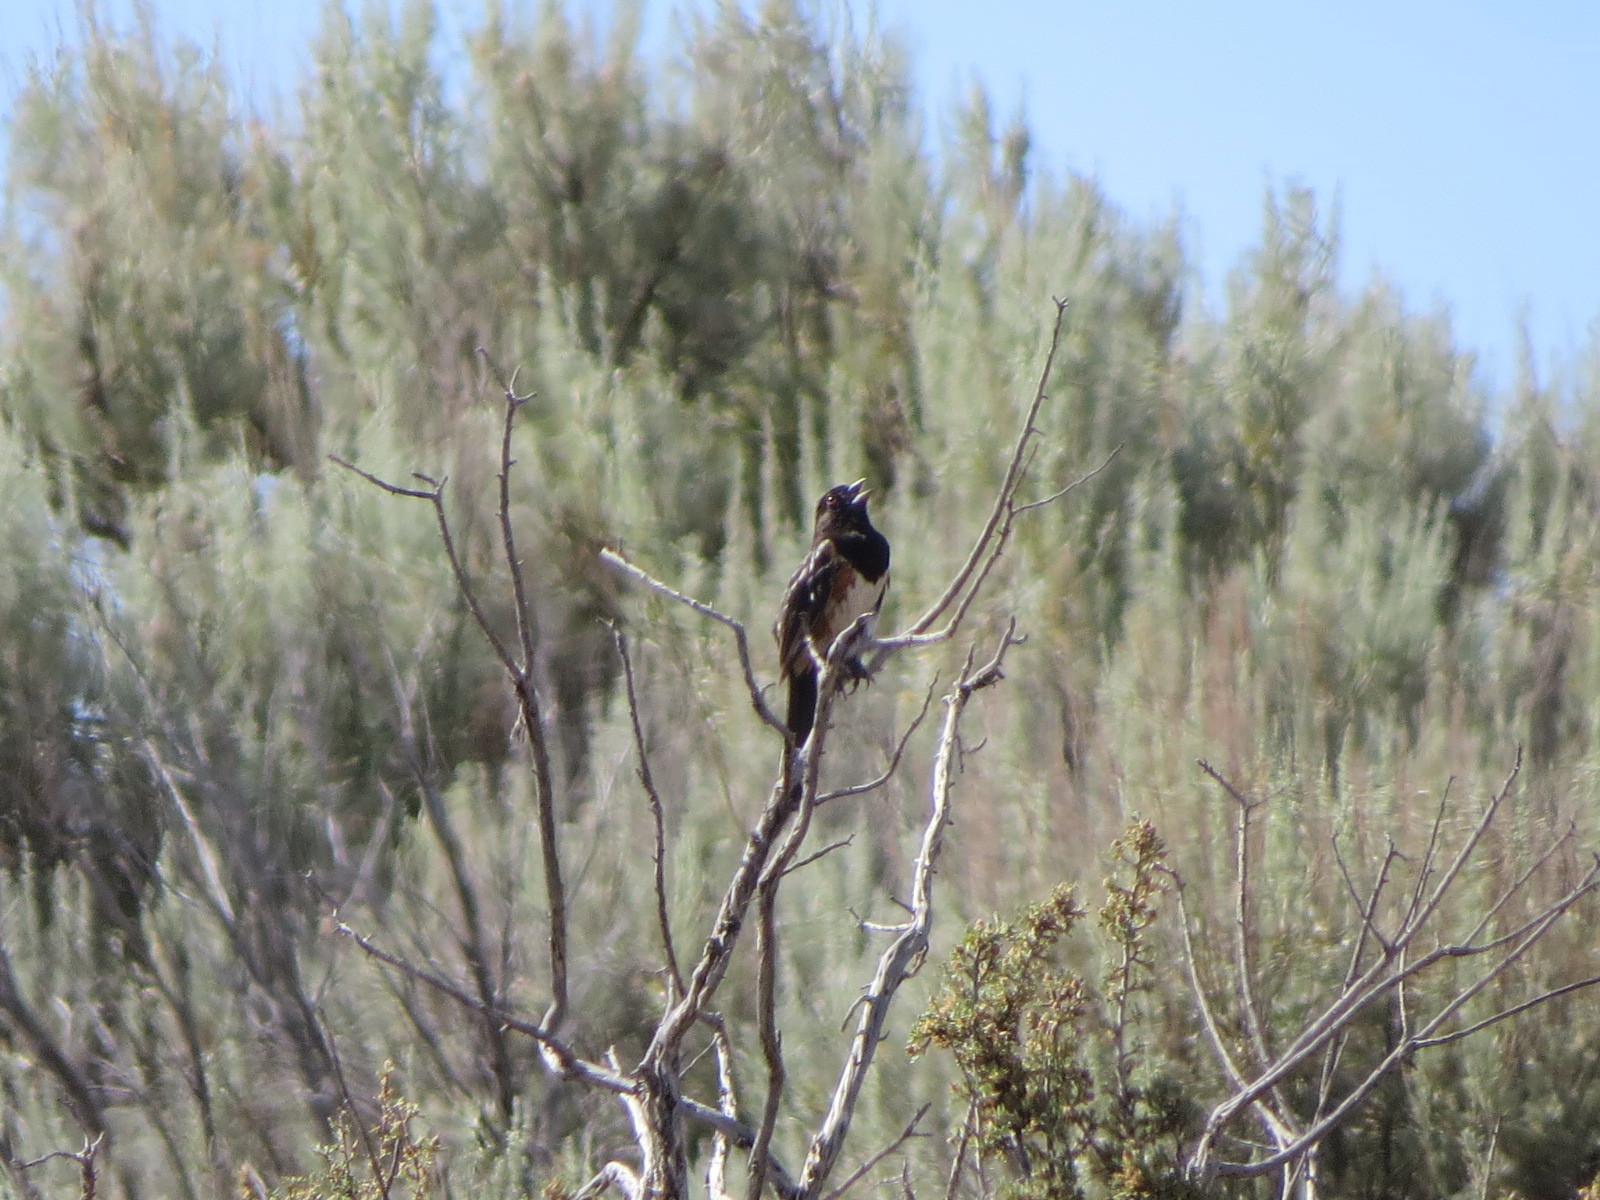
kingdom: Animalia
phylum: Chordata
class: Aves
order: Passeriformes
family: Passerellidae
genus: Pipilo
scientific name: Pipilo maculatus
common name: Spotted towhee
